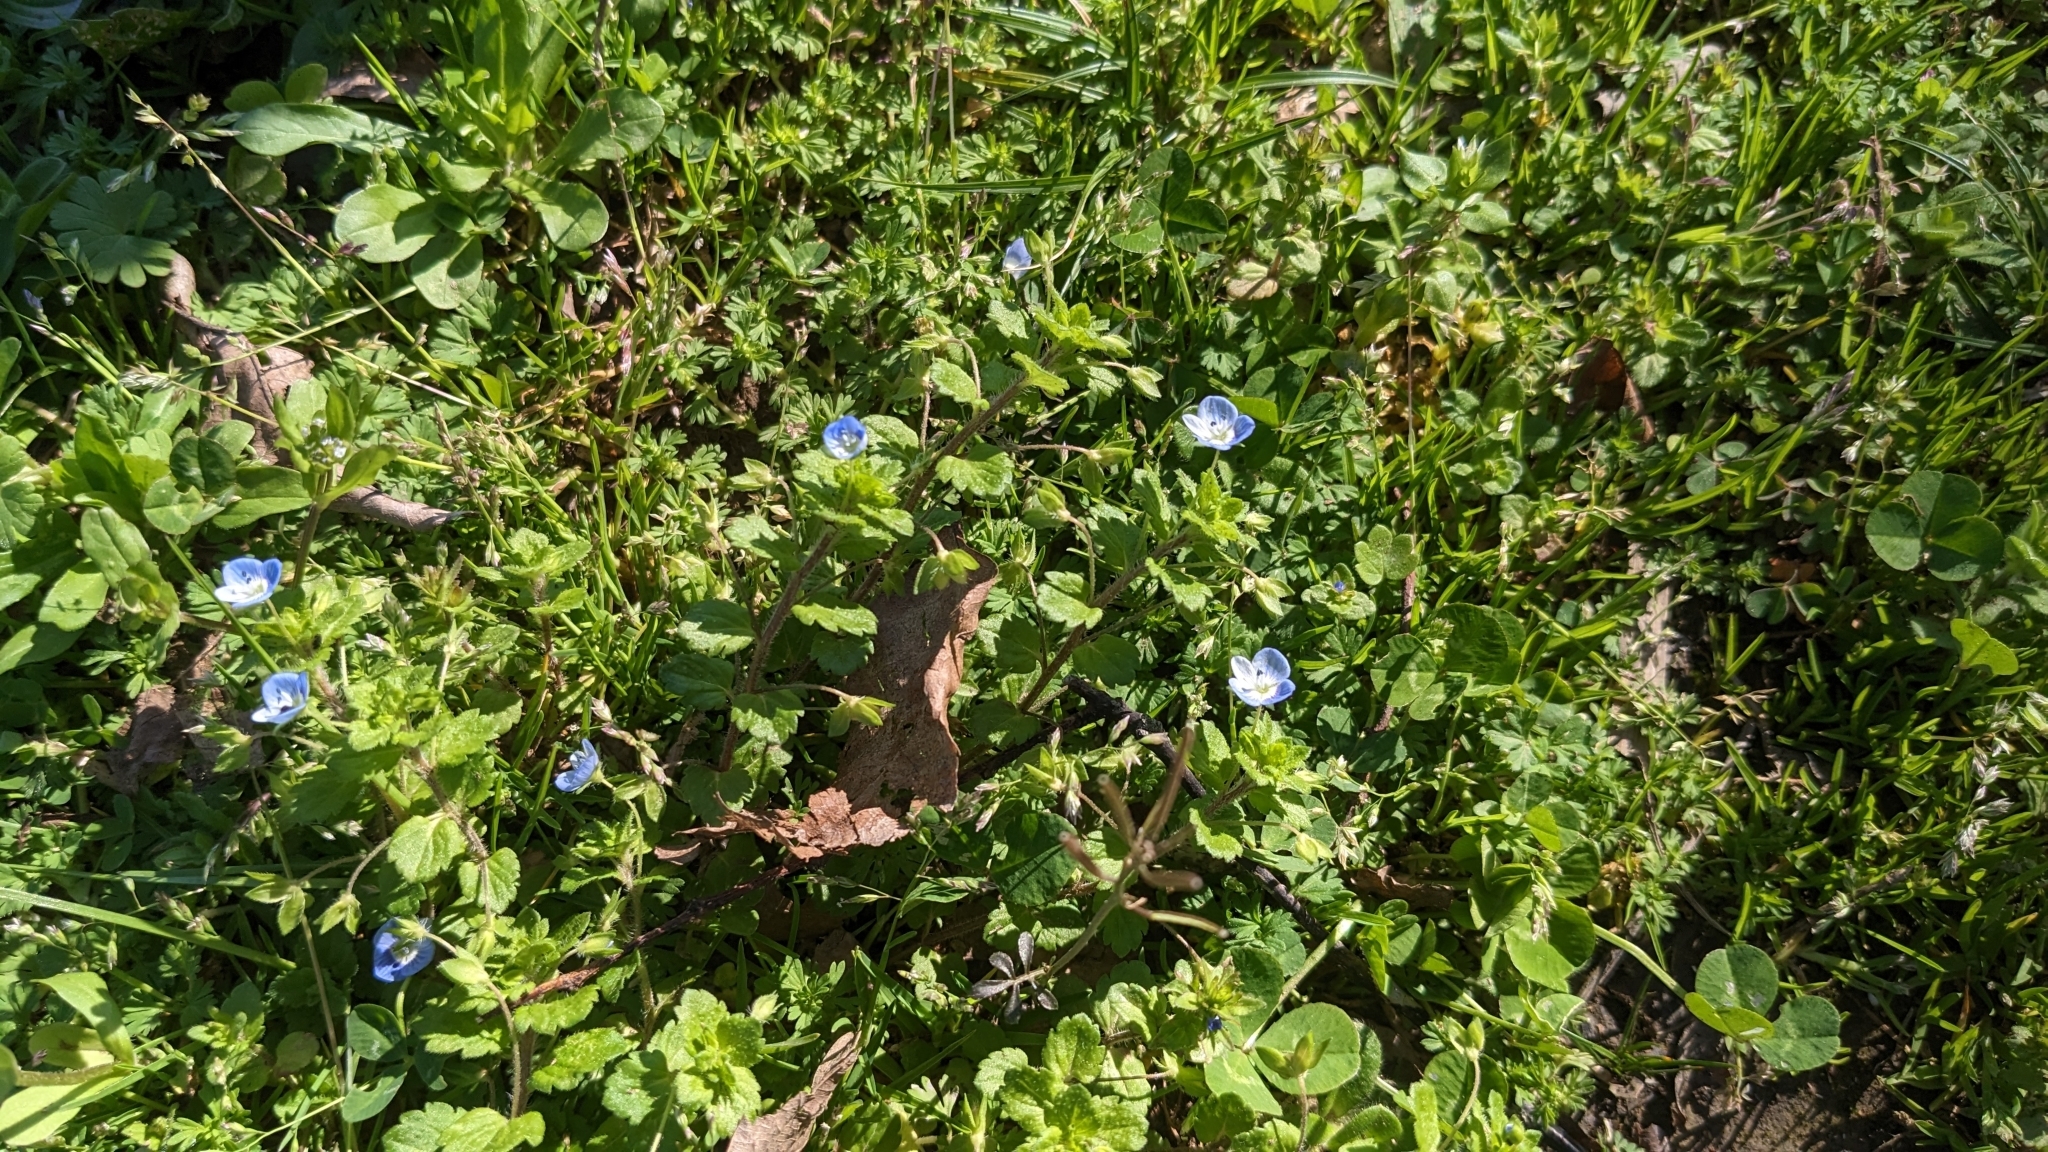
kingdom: Plantae
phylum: Tracheophyta
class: Magnoliopsida
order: Lamiales
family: Plantaginaceae
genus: Veronica
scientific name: Veronica persica
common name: Common field-speedwell
